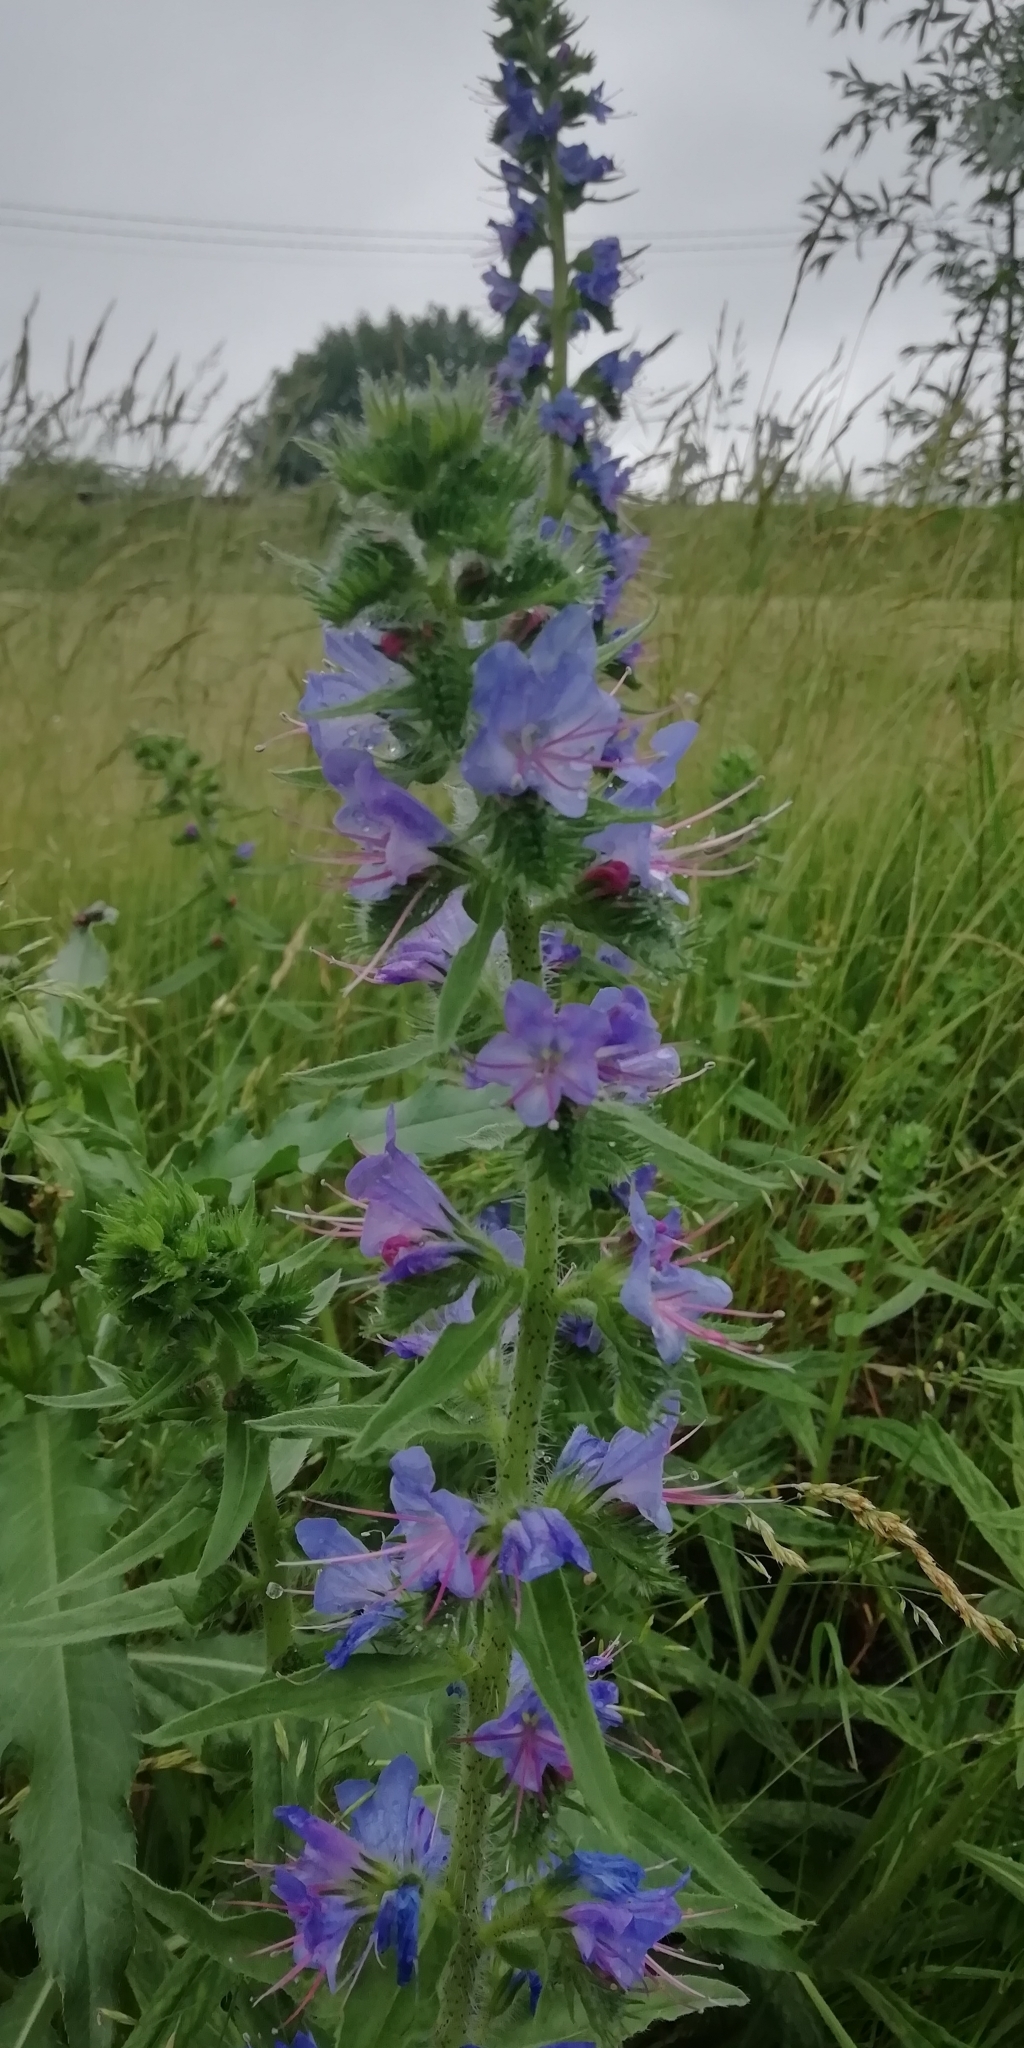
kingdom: Plantae
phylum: Tracheophyta
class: Magnoliopsida
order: Boraginales
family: Boraginaceae
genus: Echium
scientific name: Echium vulgare
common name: Common viper's bugloss
